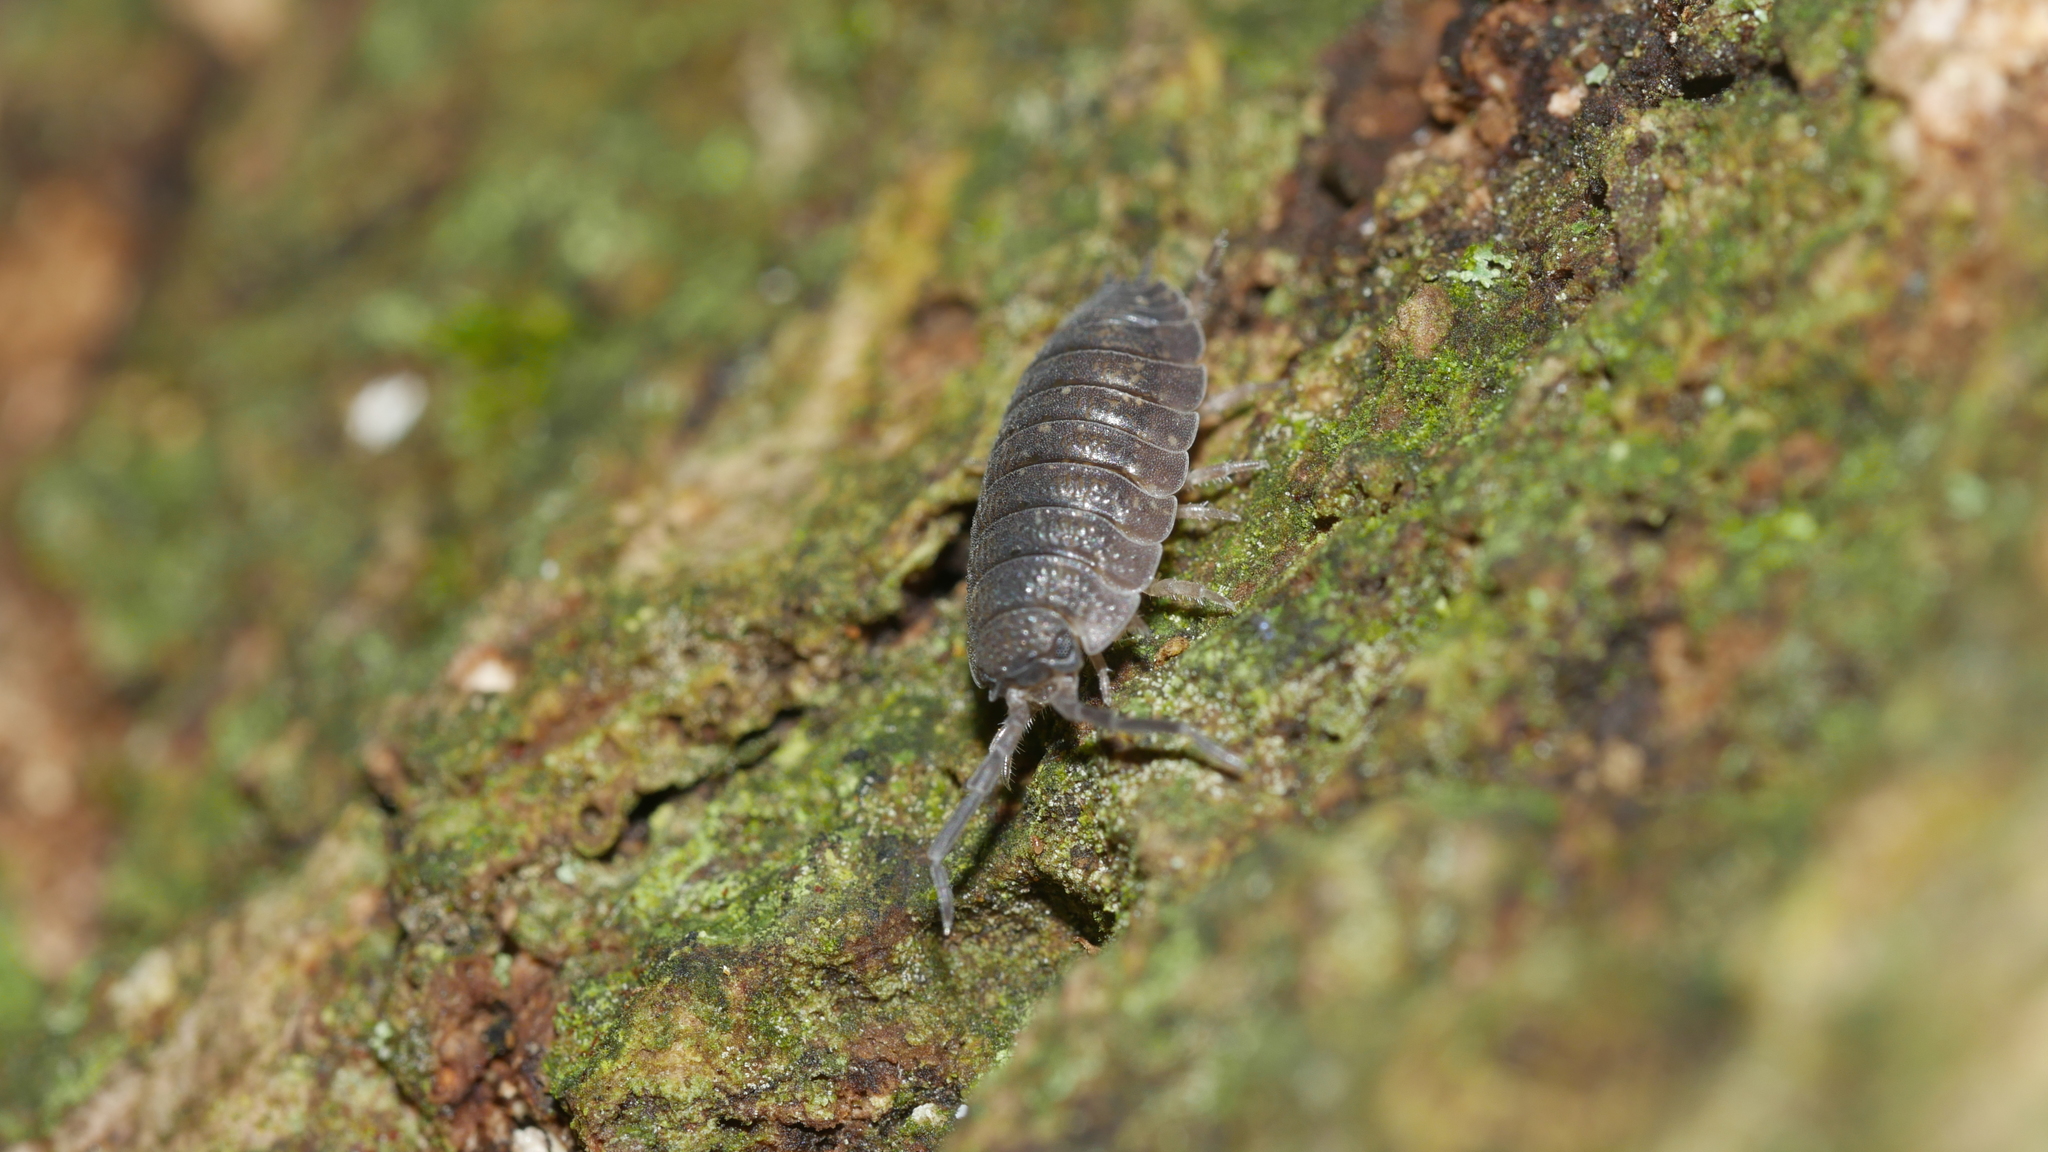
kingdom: Animalia
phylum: Arthropoda
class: Malacostraca
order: Isopoda
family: Porcellionidae
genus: Porcellio
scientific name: Porcellio scaber
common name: Common rough woodlouse
